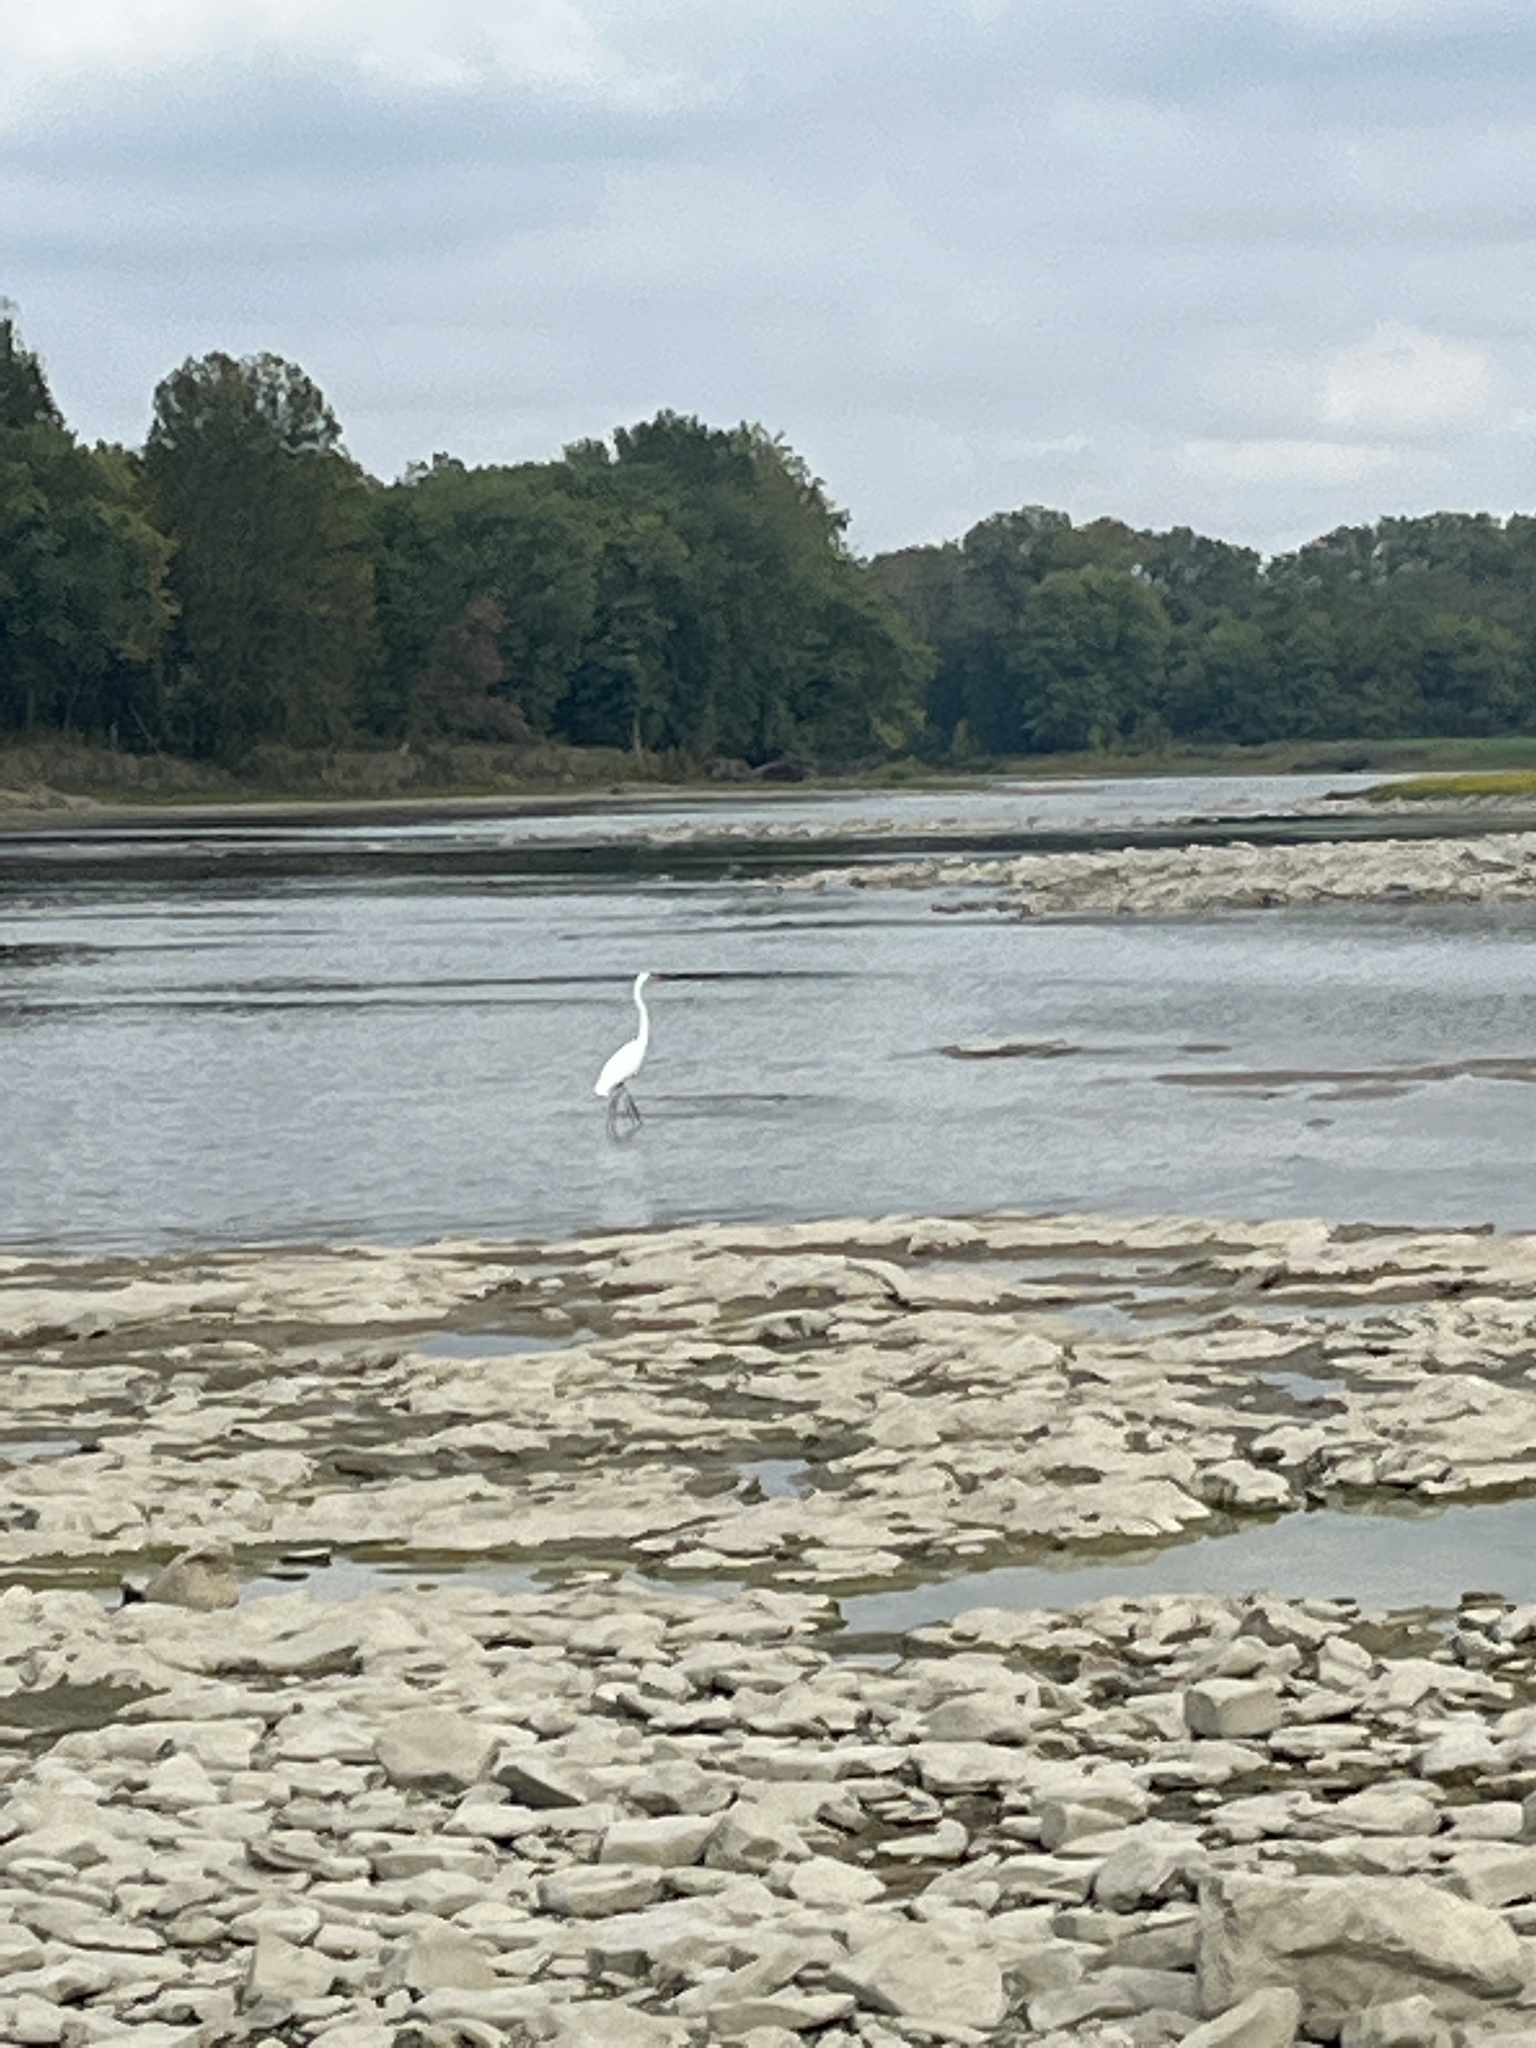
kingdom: Animalia
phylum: Chordata
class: Aves
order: Pelecaniformes
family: Ardeidae
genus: Ardea
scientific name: Ardea alba
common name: Great egret
